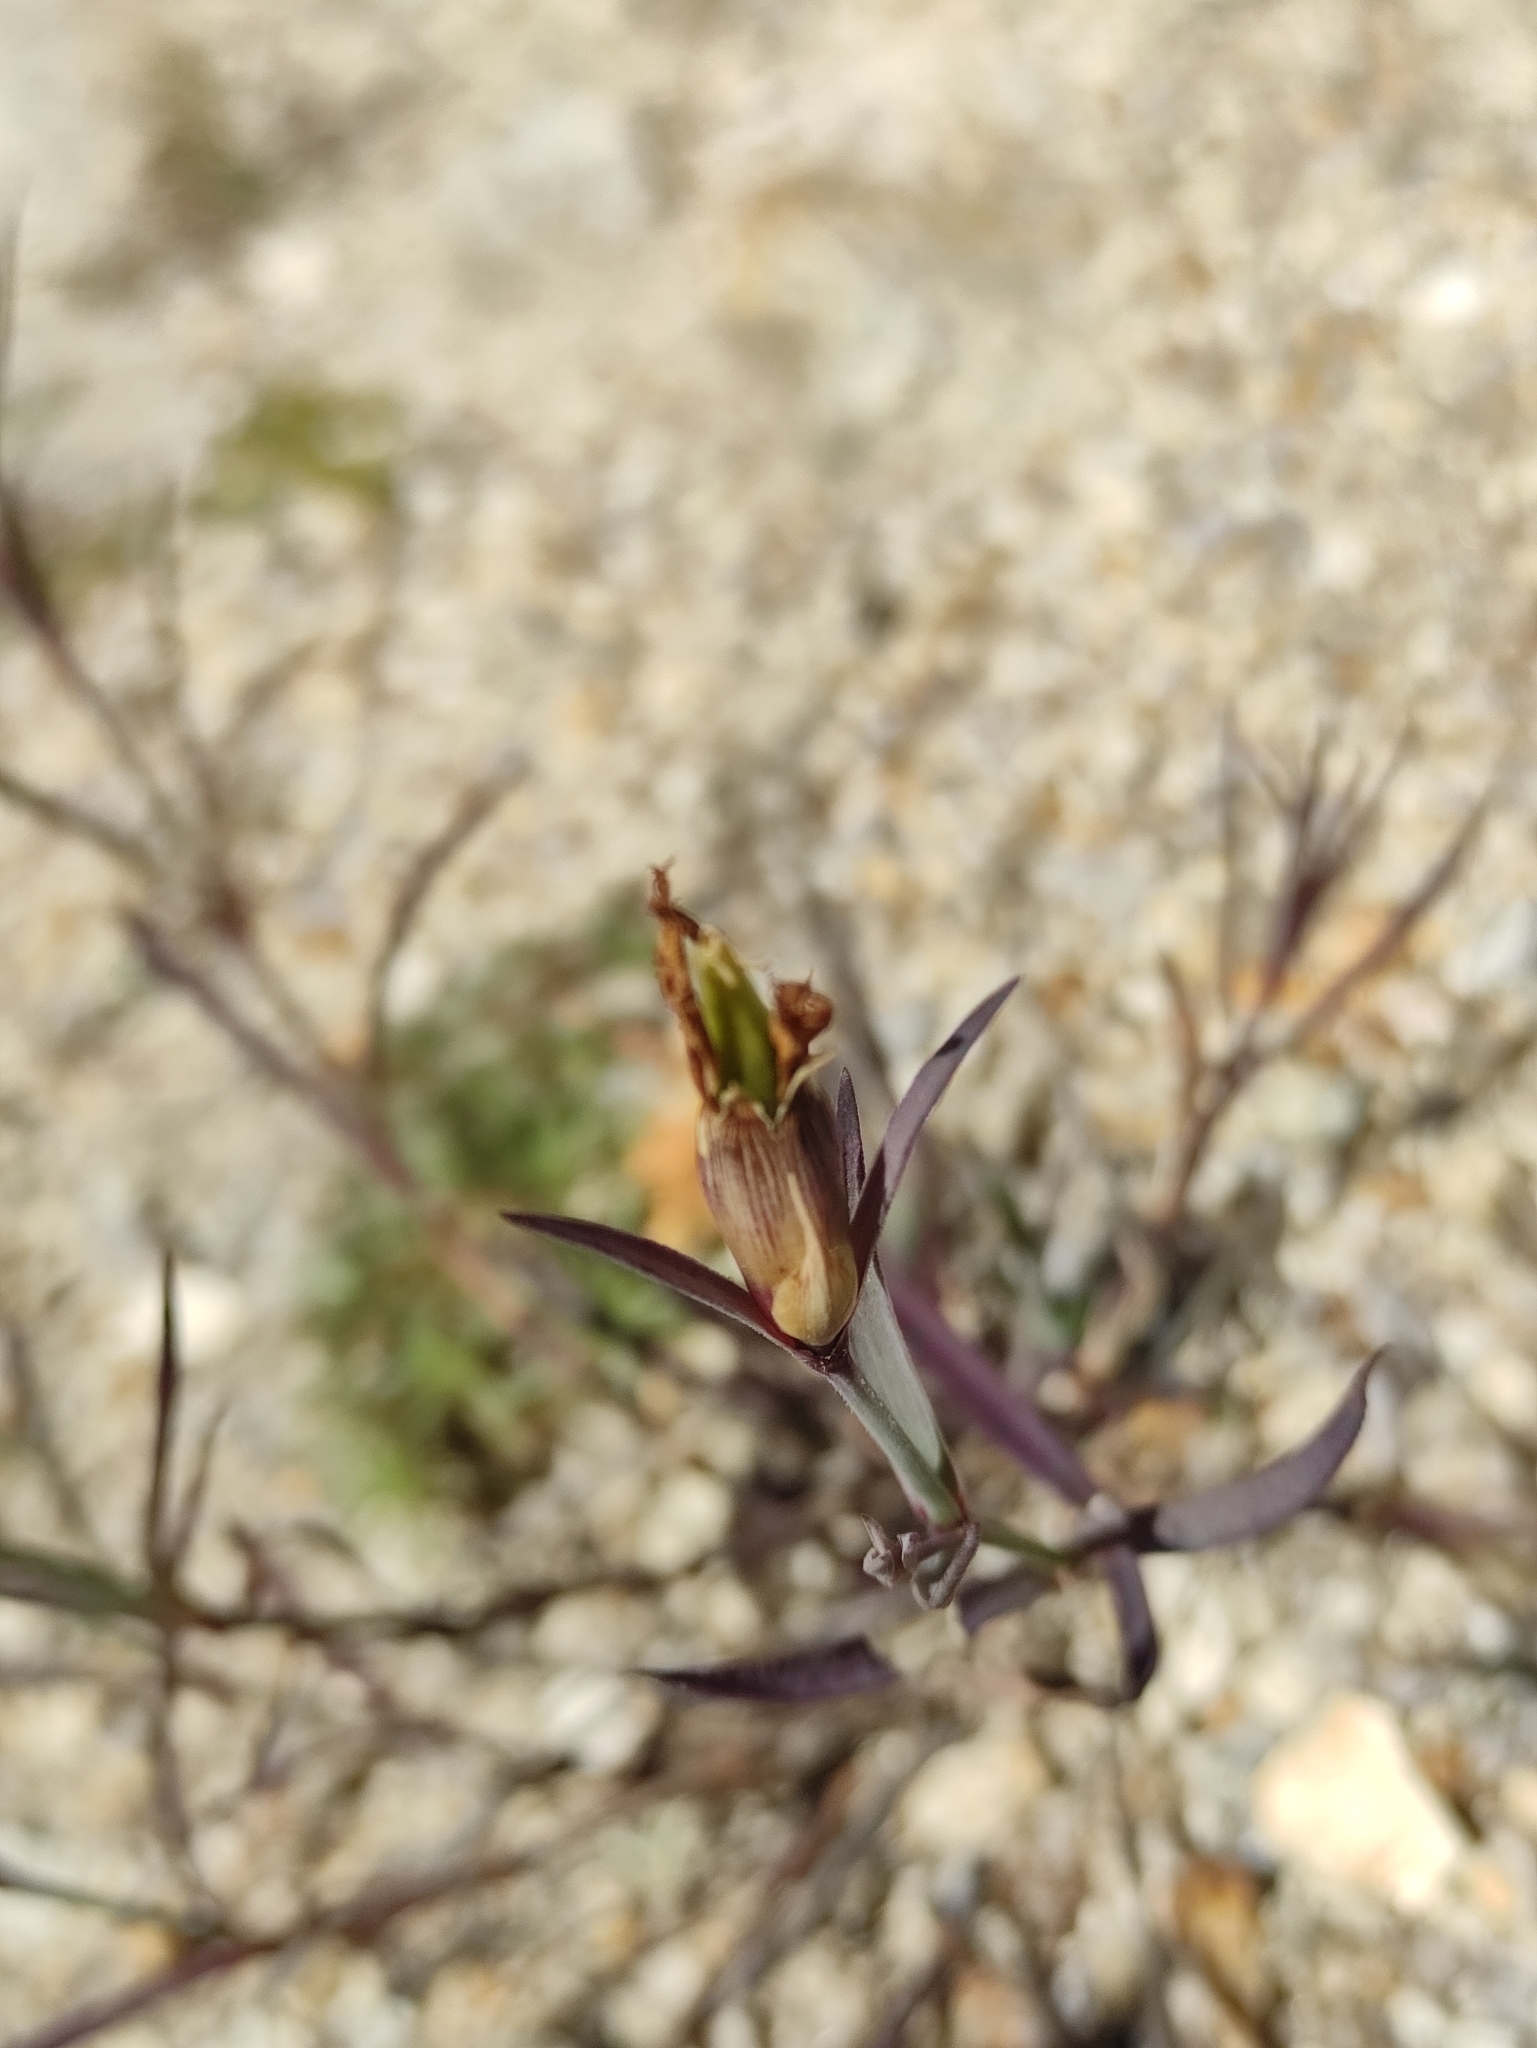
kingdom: Plantae
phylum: Tracheophyta
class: Magnoliopsida
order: Caryophyllales
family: Caryophyllaceae
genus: Dianthus
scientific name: Dianthus chinensis
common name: Rainbow pink
